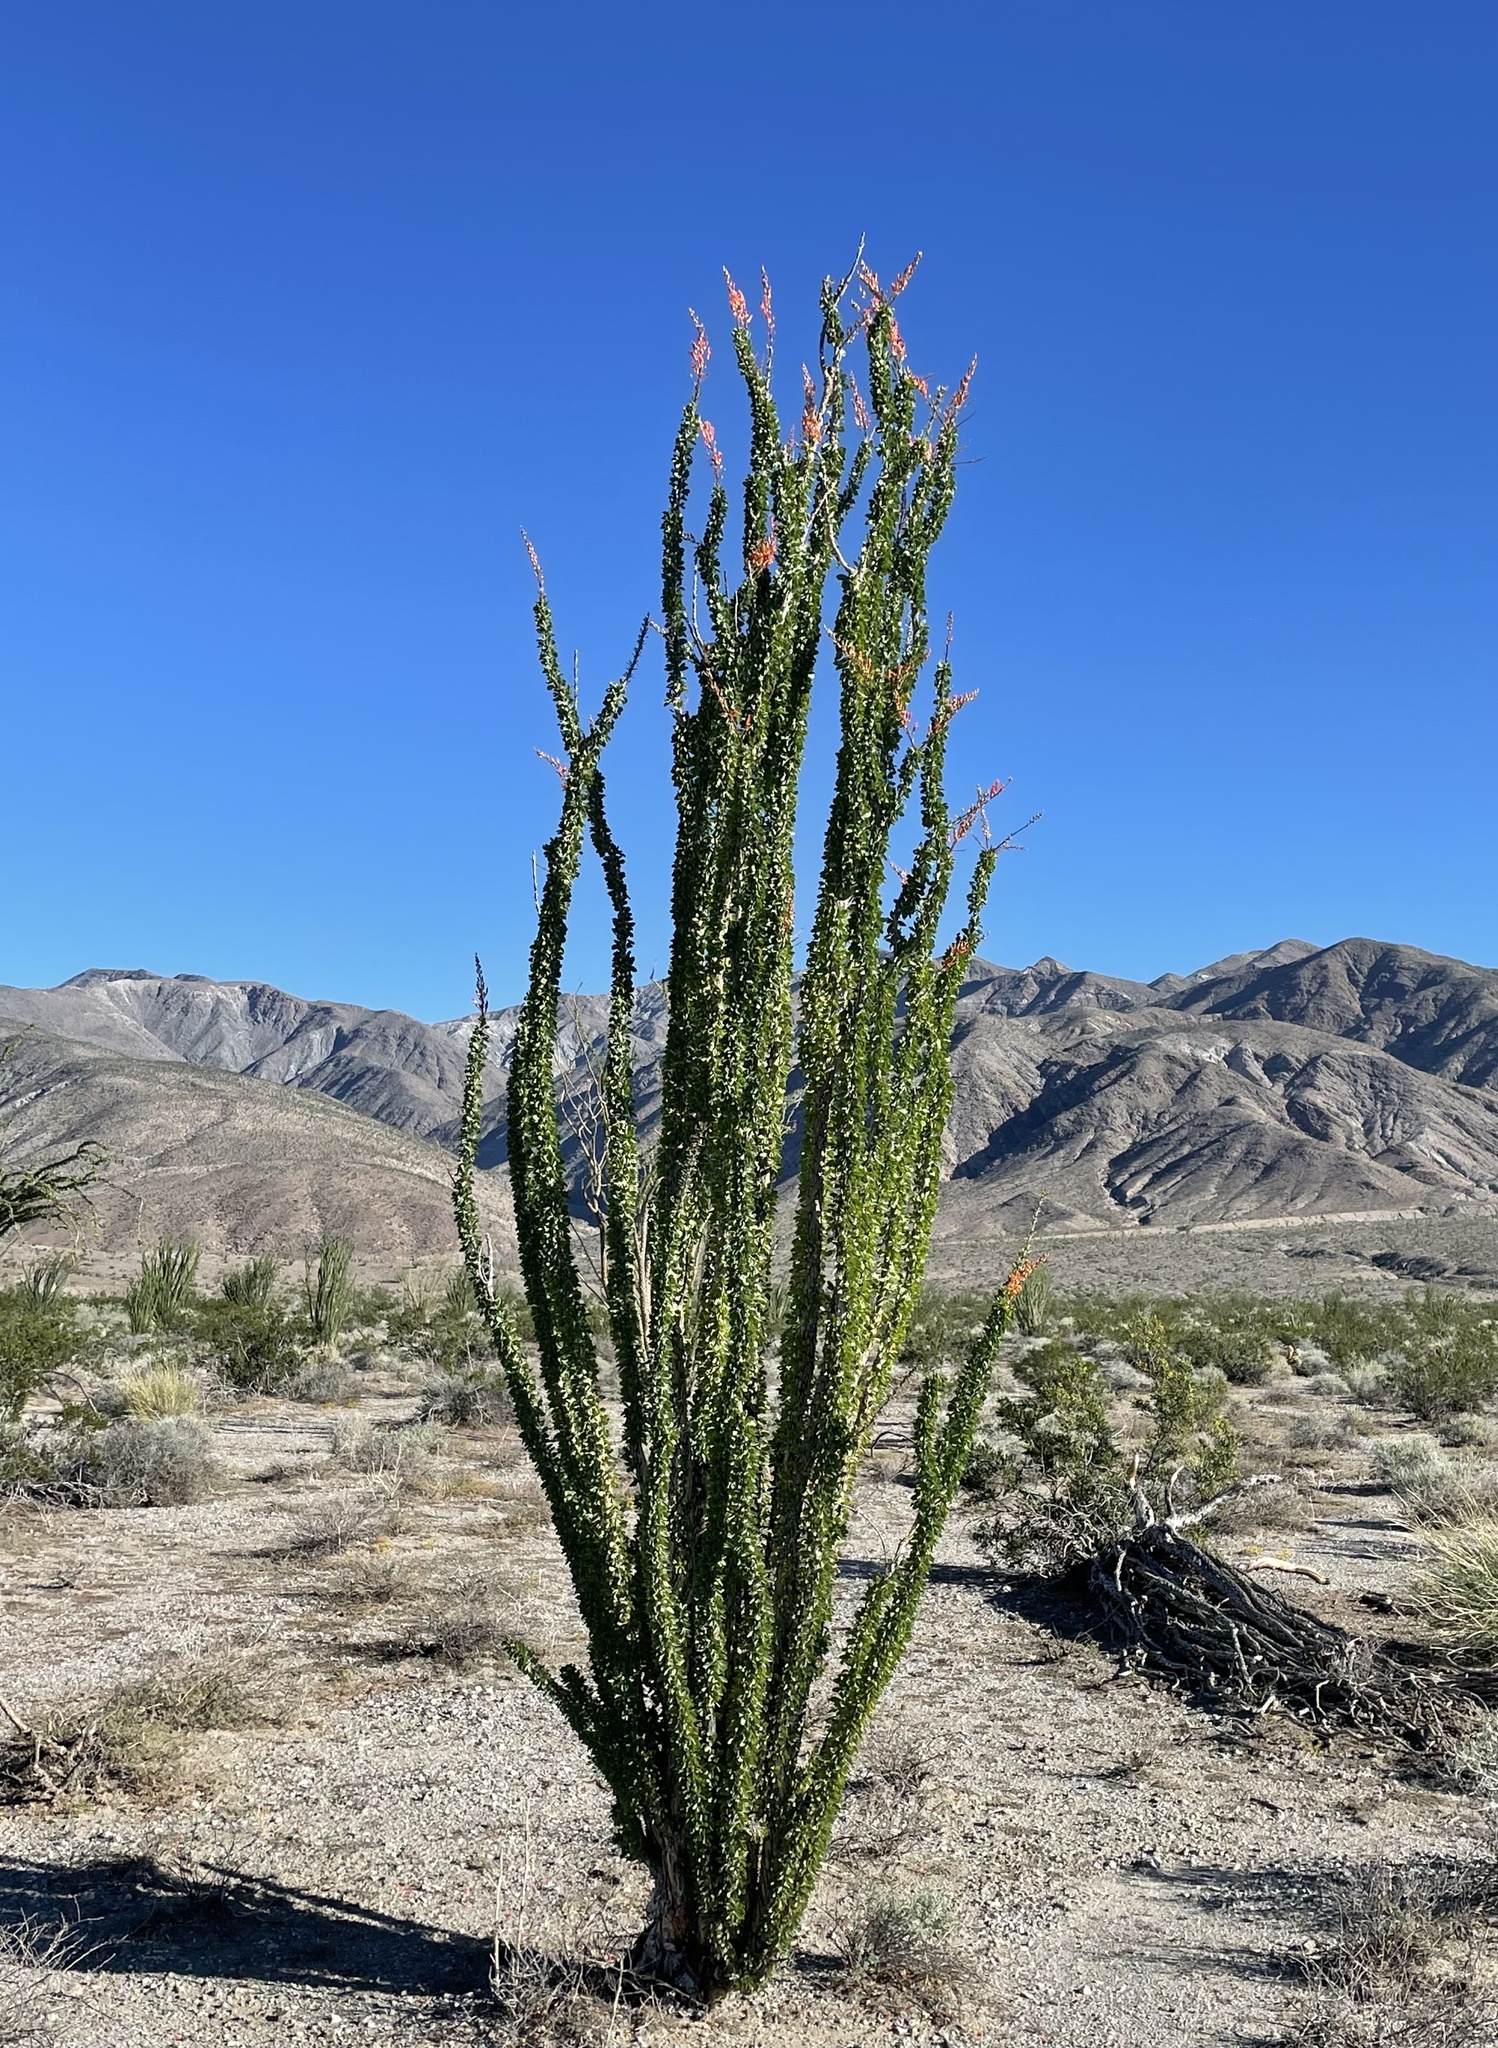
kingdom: Plantae
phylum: Tracheophyta
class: Magnoliopsida
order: Ericales
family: Fouquieriaceae
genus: Fouquieria
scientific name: Fouquieria splendens
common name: Vine-cactus
